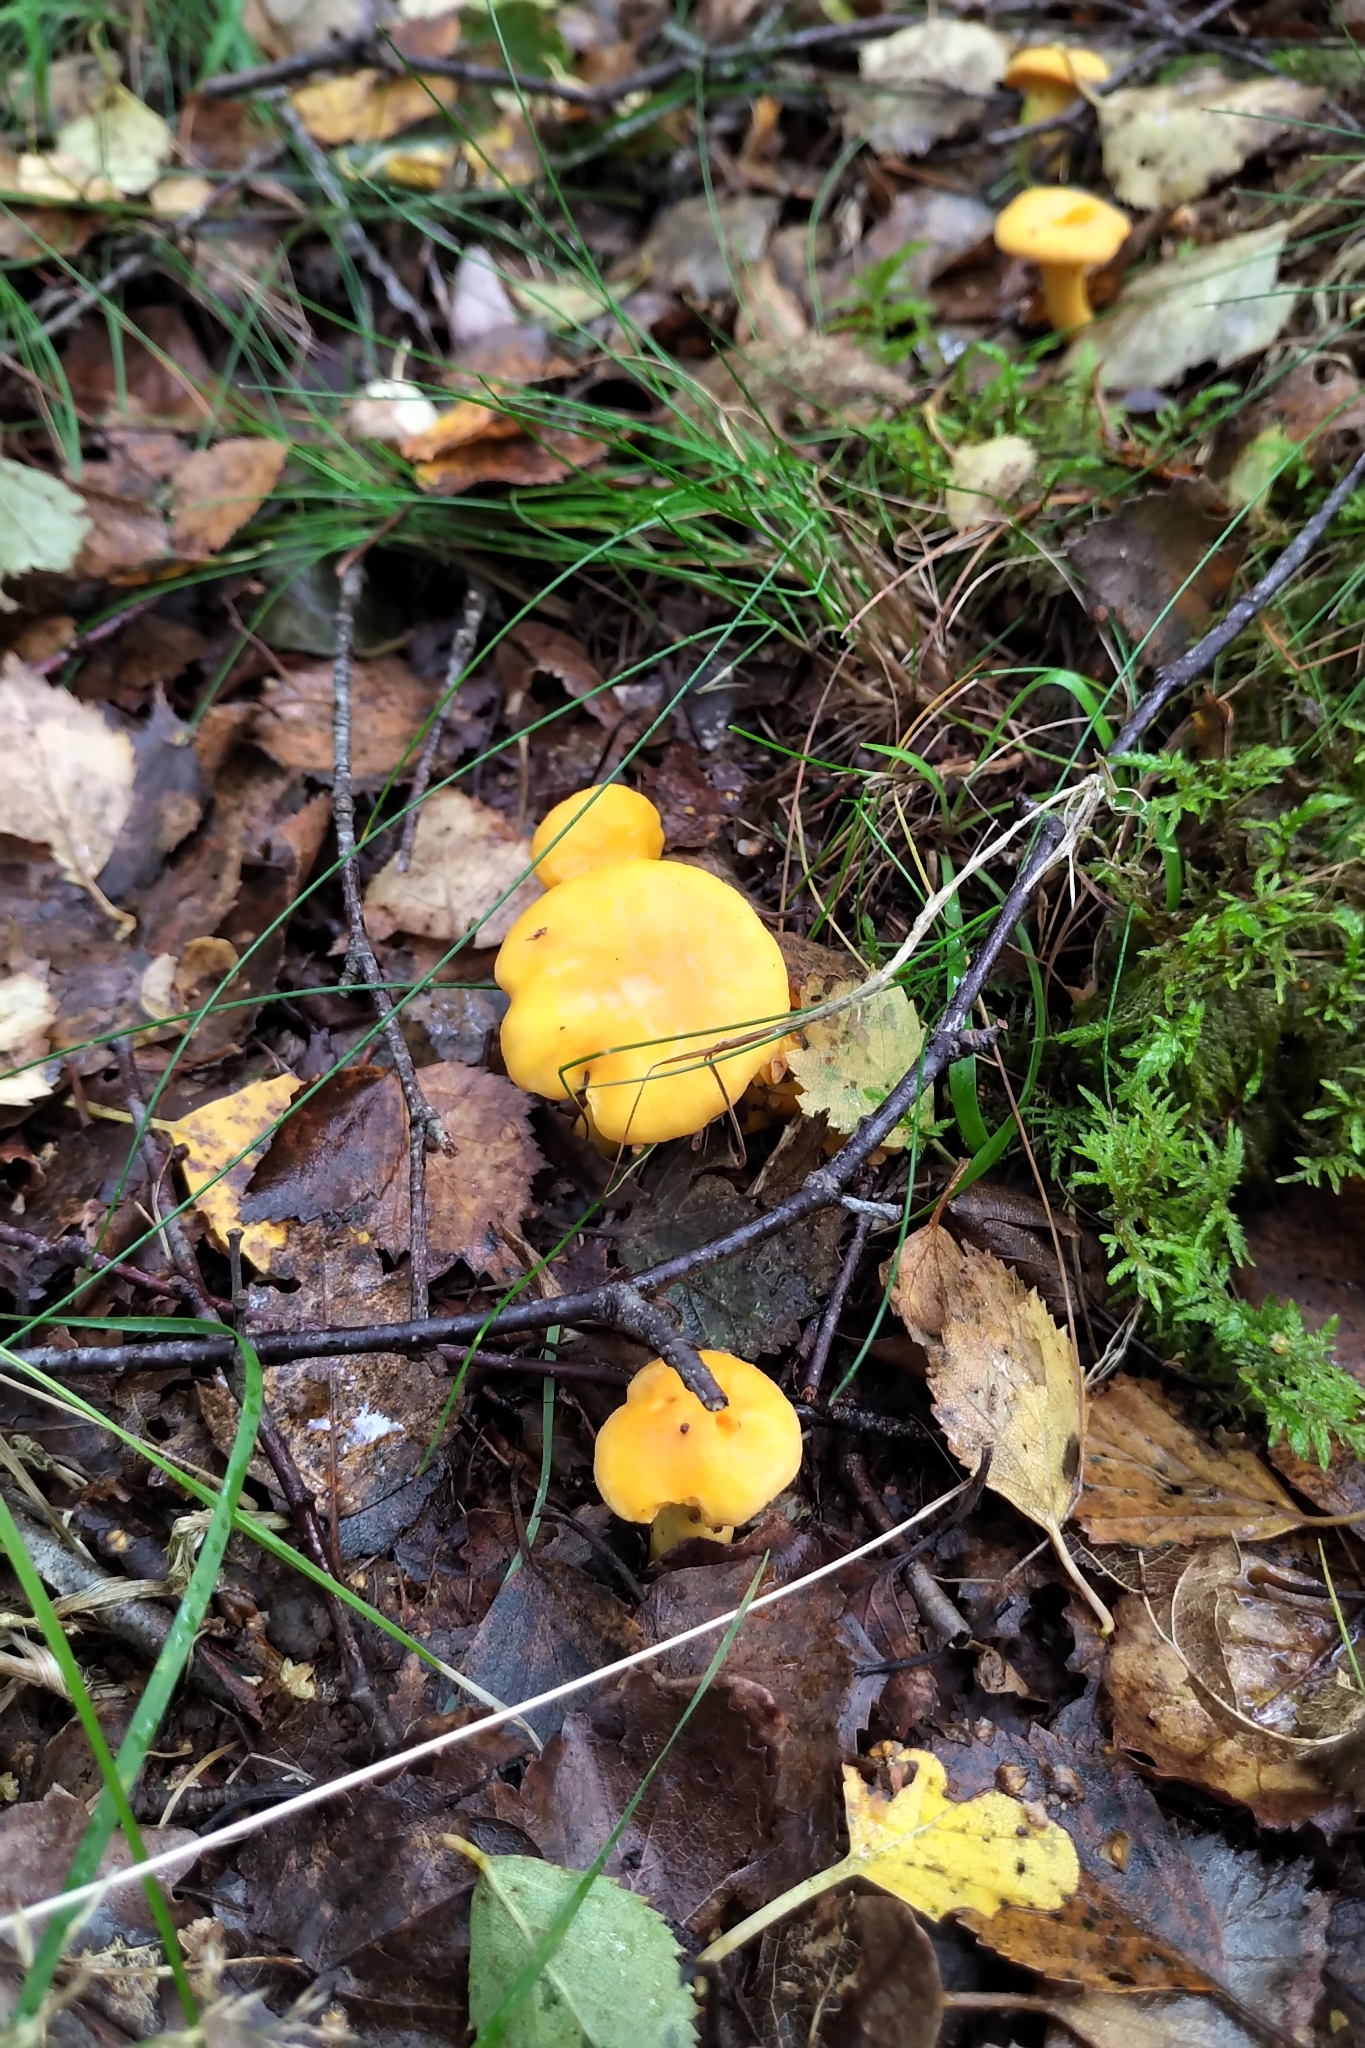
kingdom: Fungi
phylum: Basidiomycota
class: Agaricomycetes
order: Cantharellales
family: Hydnaceae
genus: Cantharellus
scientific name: Cantharellus cibarius
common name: Chanterelle
